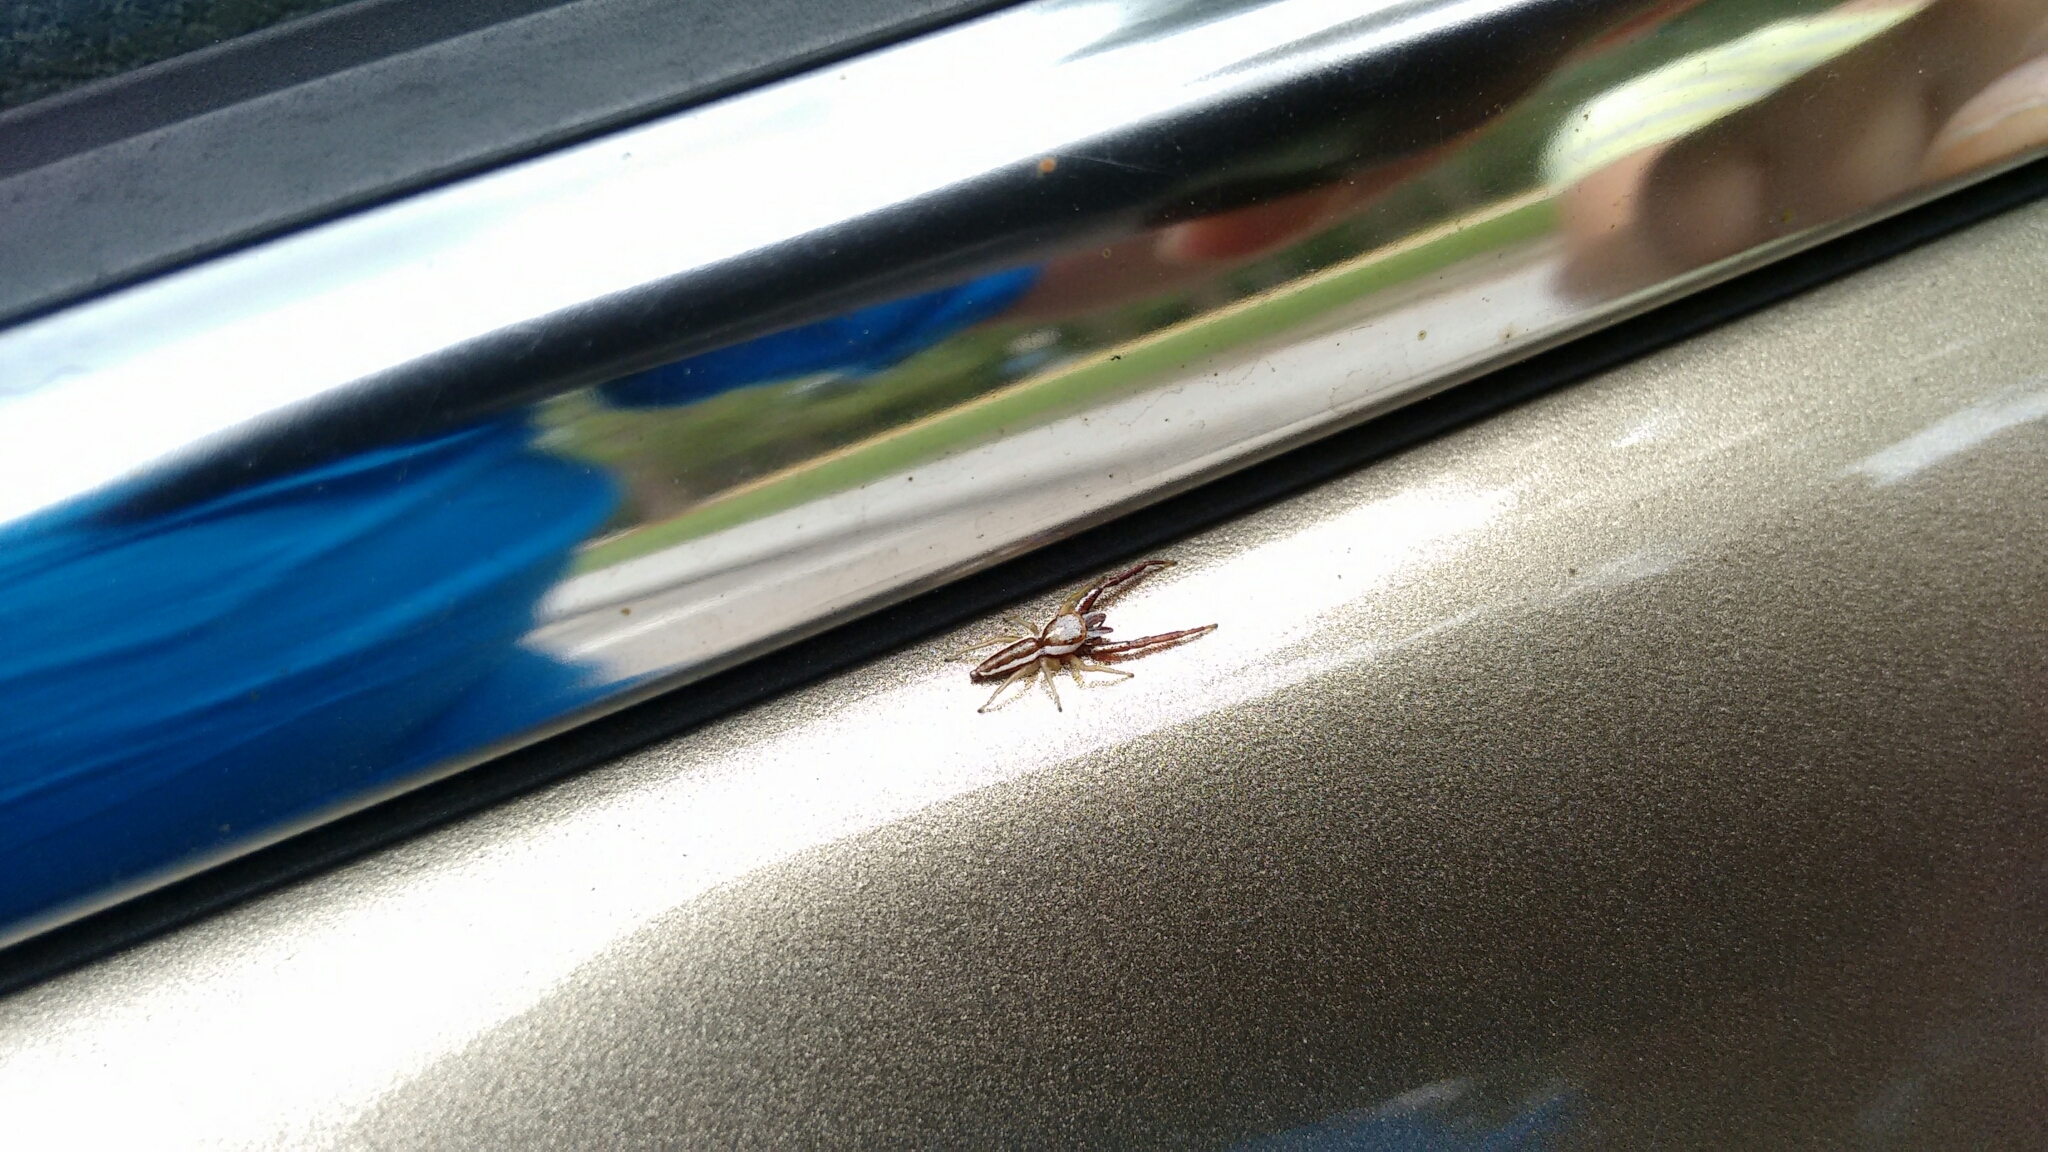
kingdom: Animalia
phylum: Arthropoda
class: Arachnida
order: Araneae
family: Salticidae
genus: Hentzia
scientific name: Hentzia palmarum
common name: Common hentz jumping spider
